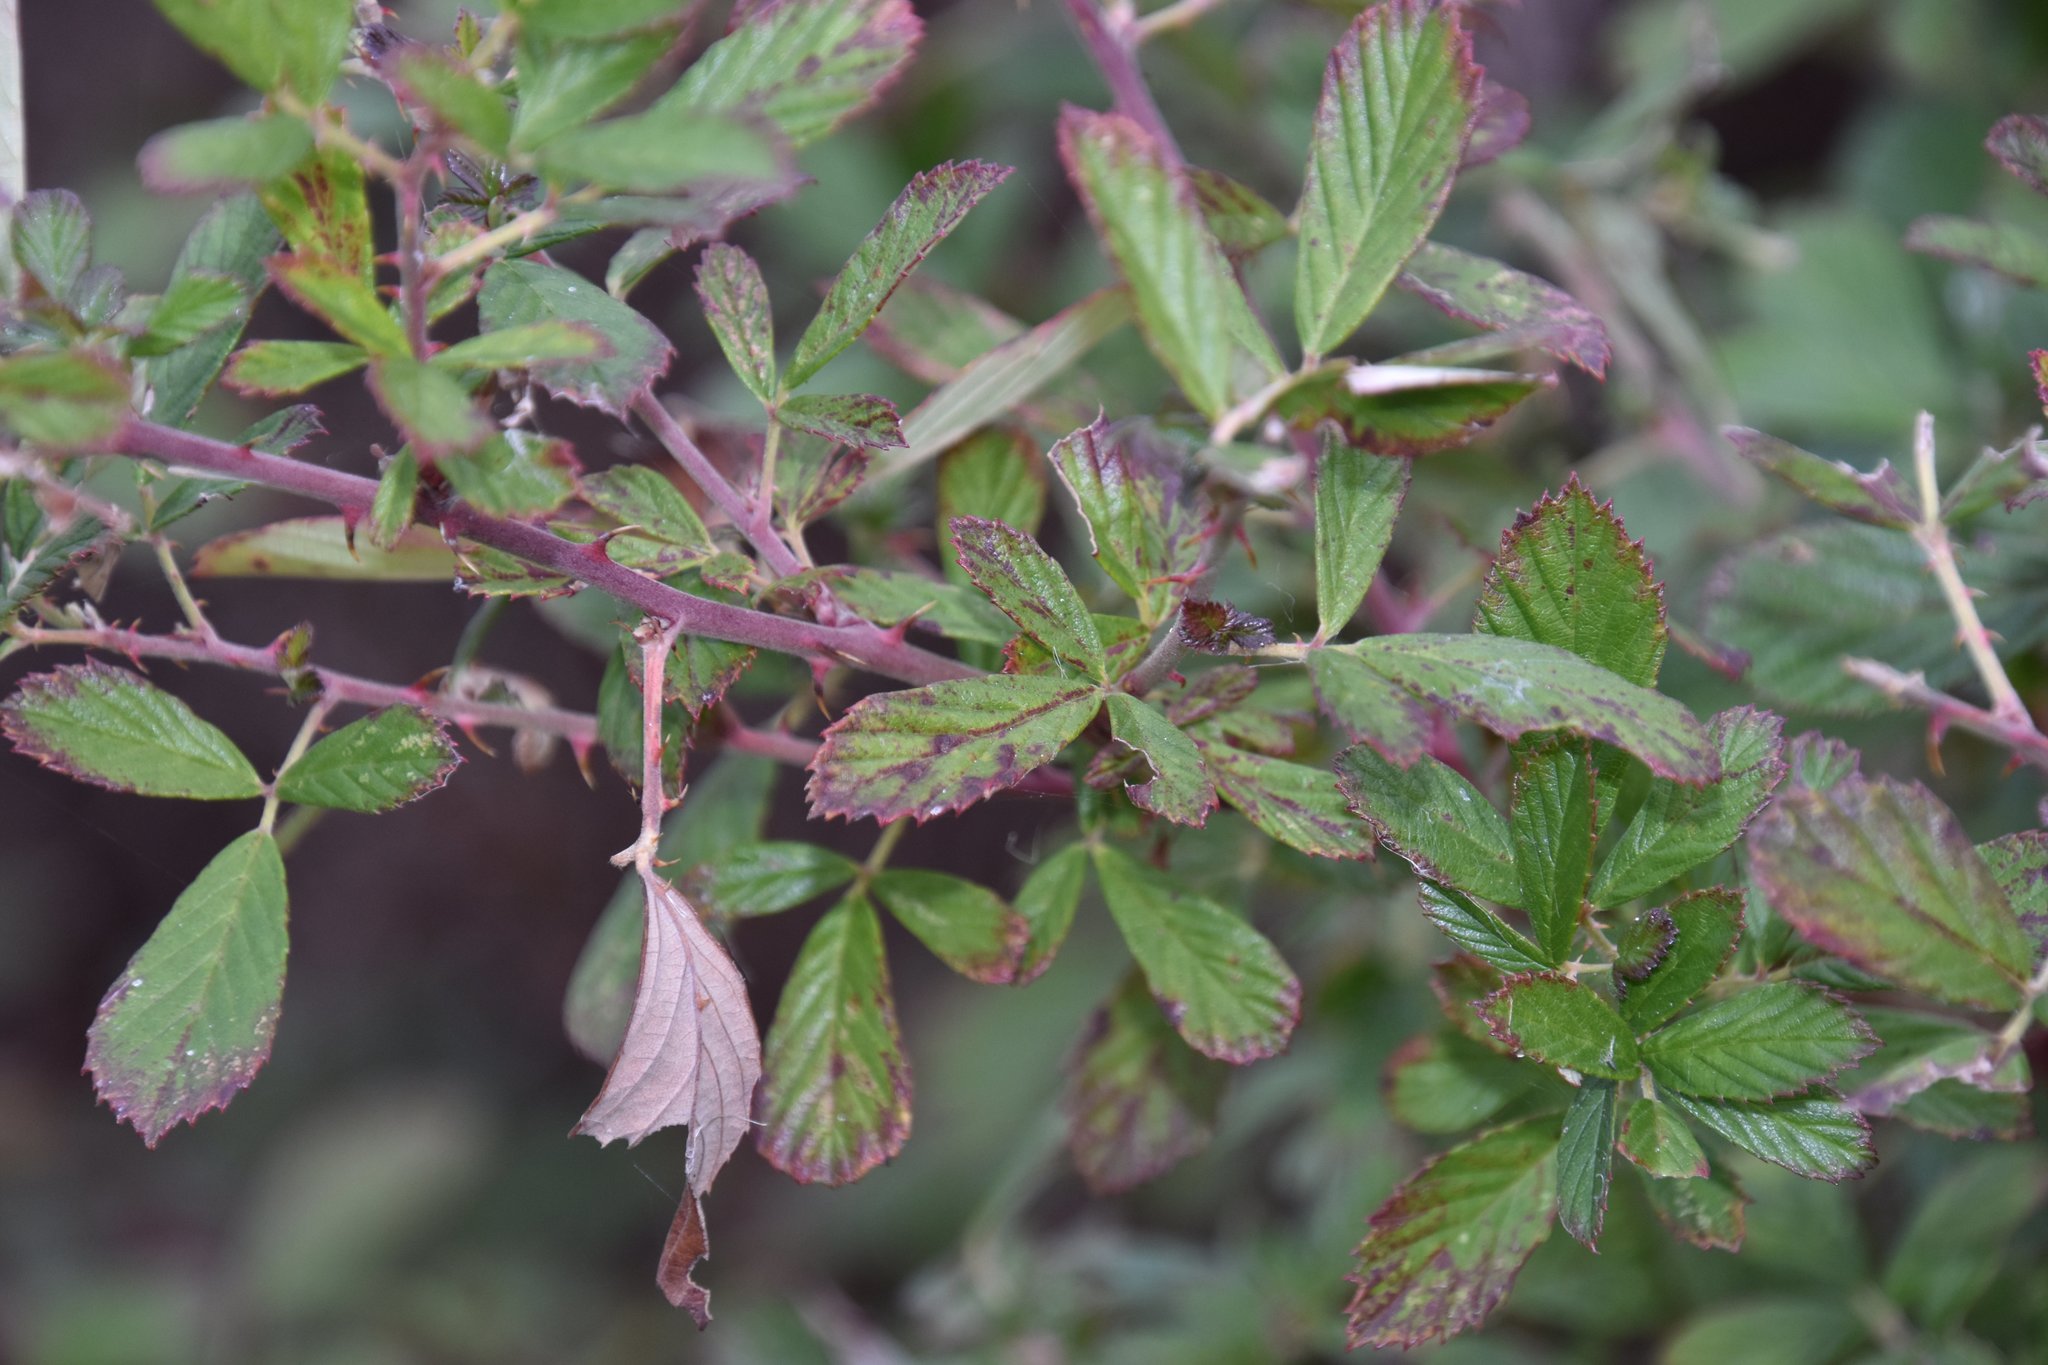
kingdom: Plantae
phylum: Tracheophyta
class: Magnoliopsida
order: Rosales
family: Rosaceae
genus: Rubus
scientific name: Rubus cuneifolius
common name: American bramble
